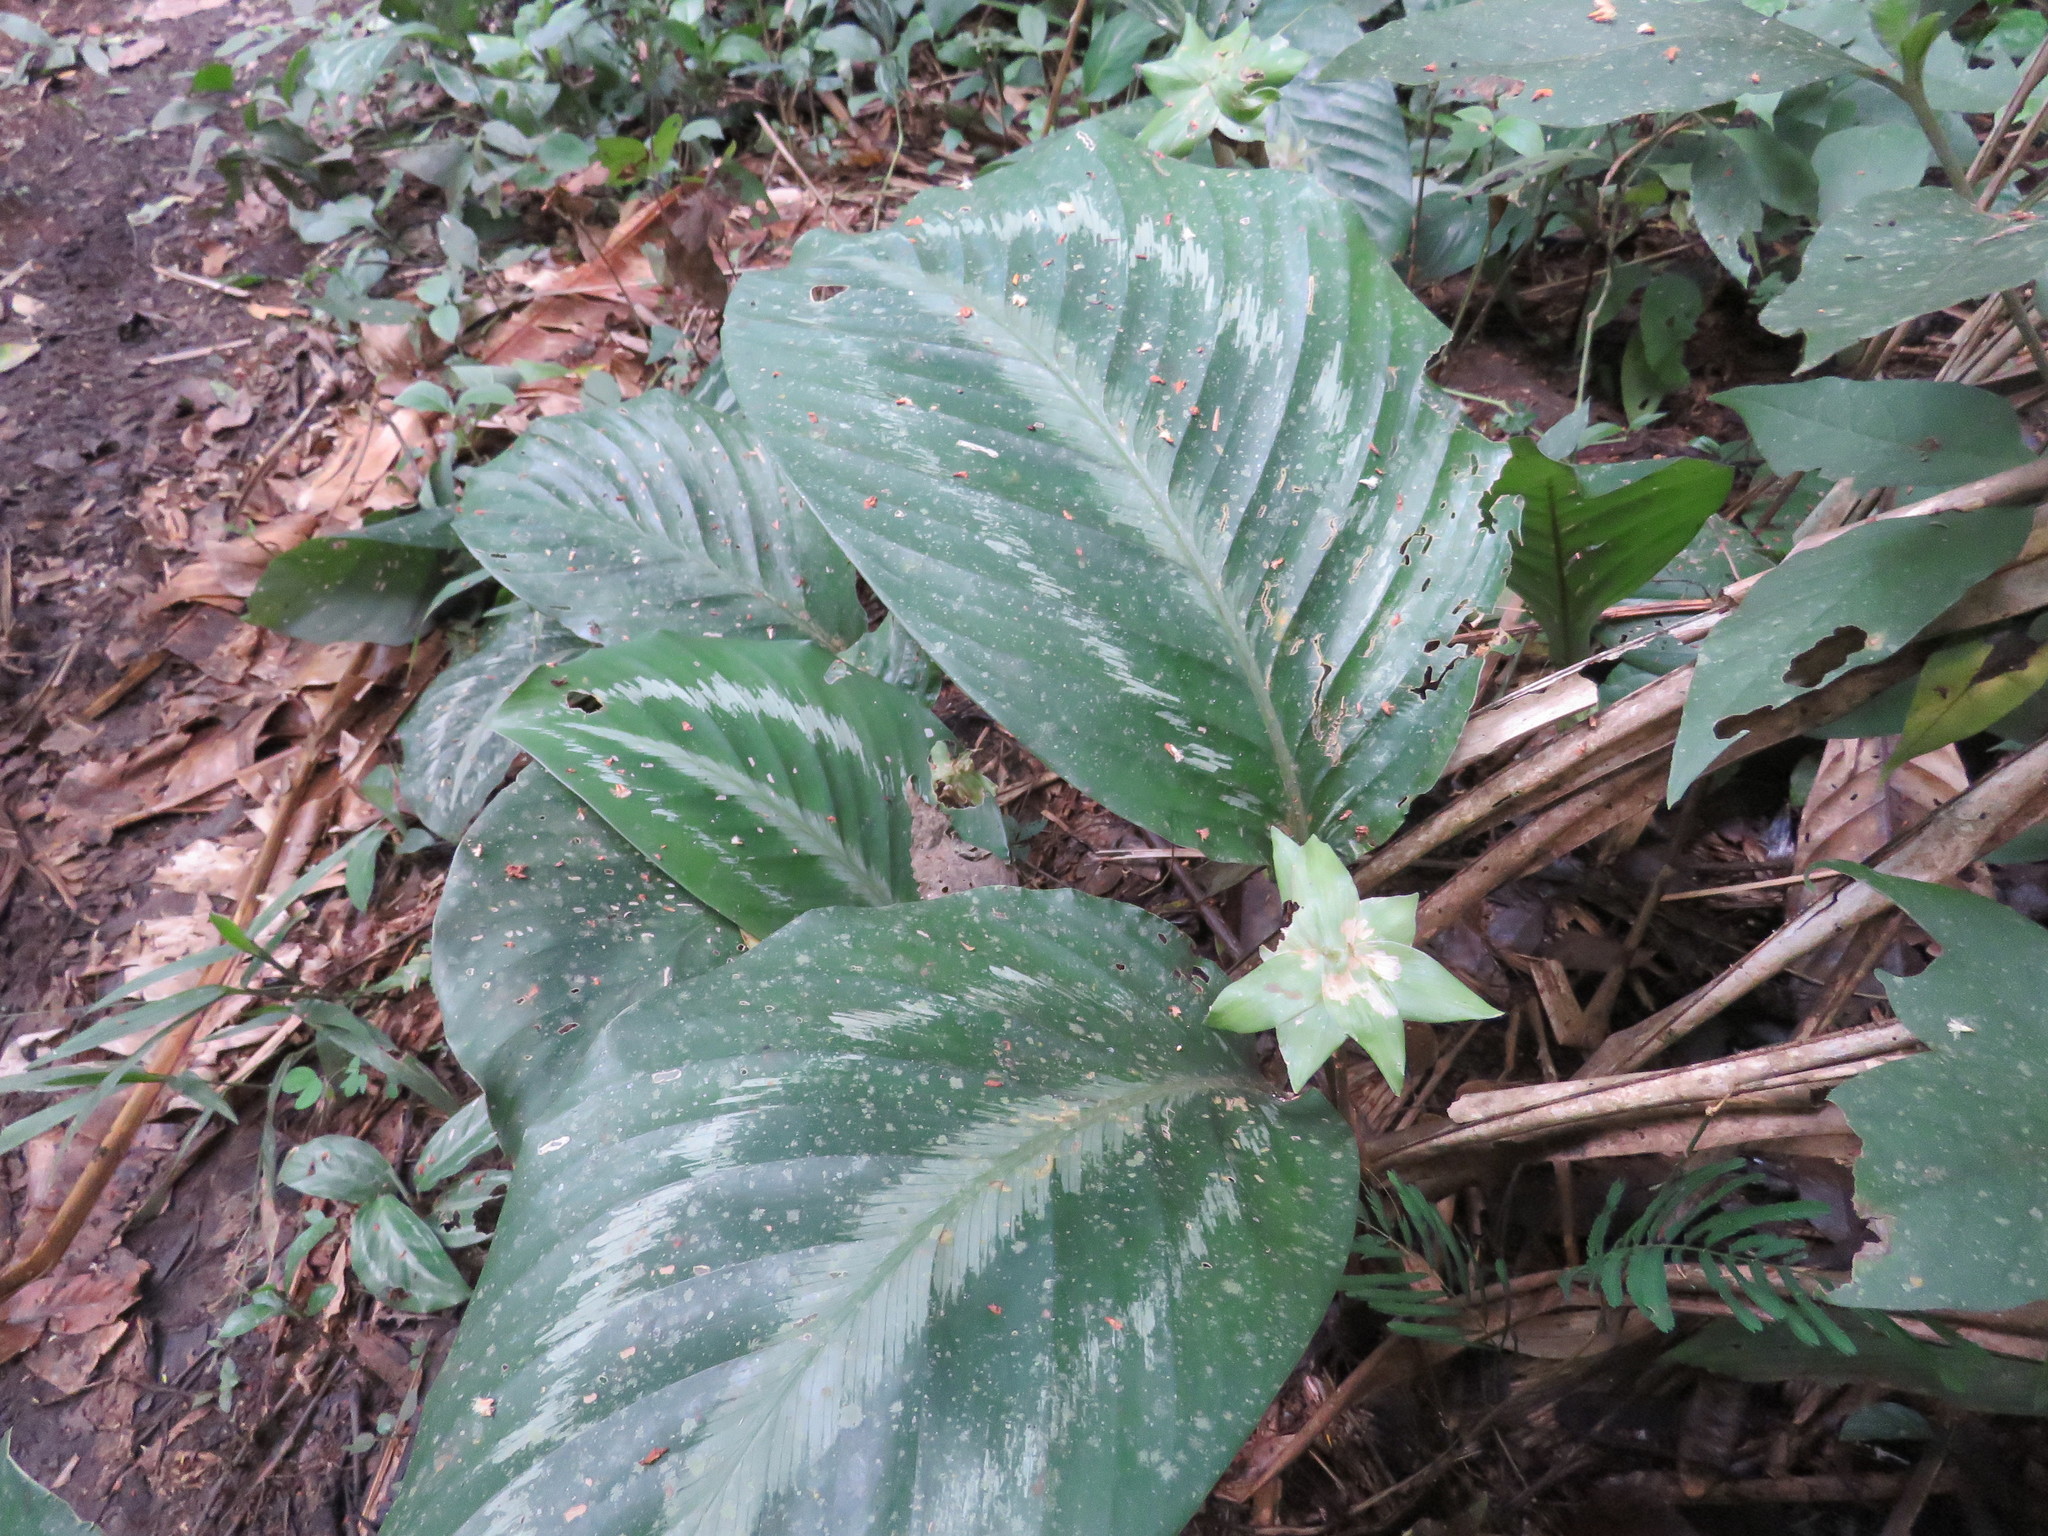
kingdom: Plantae
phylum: Tracheophyta
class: Liliopsida
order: Zingiberales
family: Marantaceae
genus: Goeppertia
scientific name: Goeppertia roseopicta
